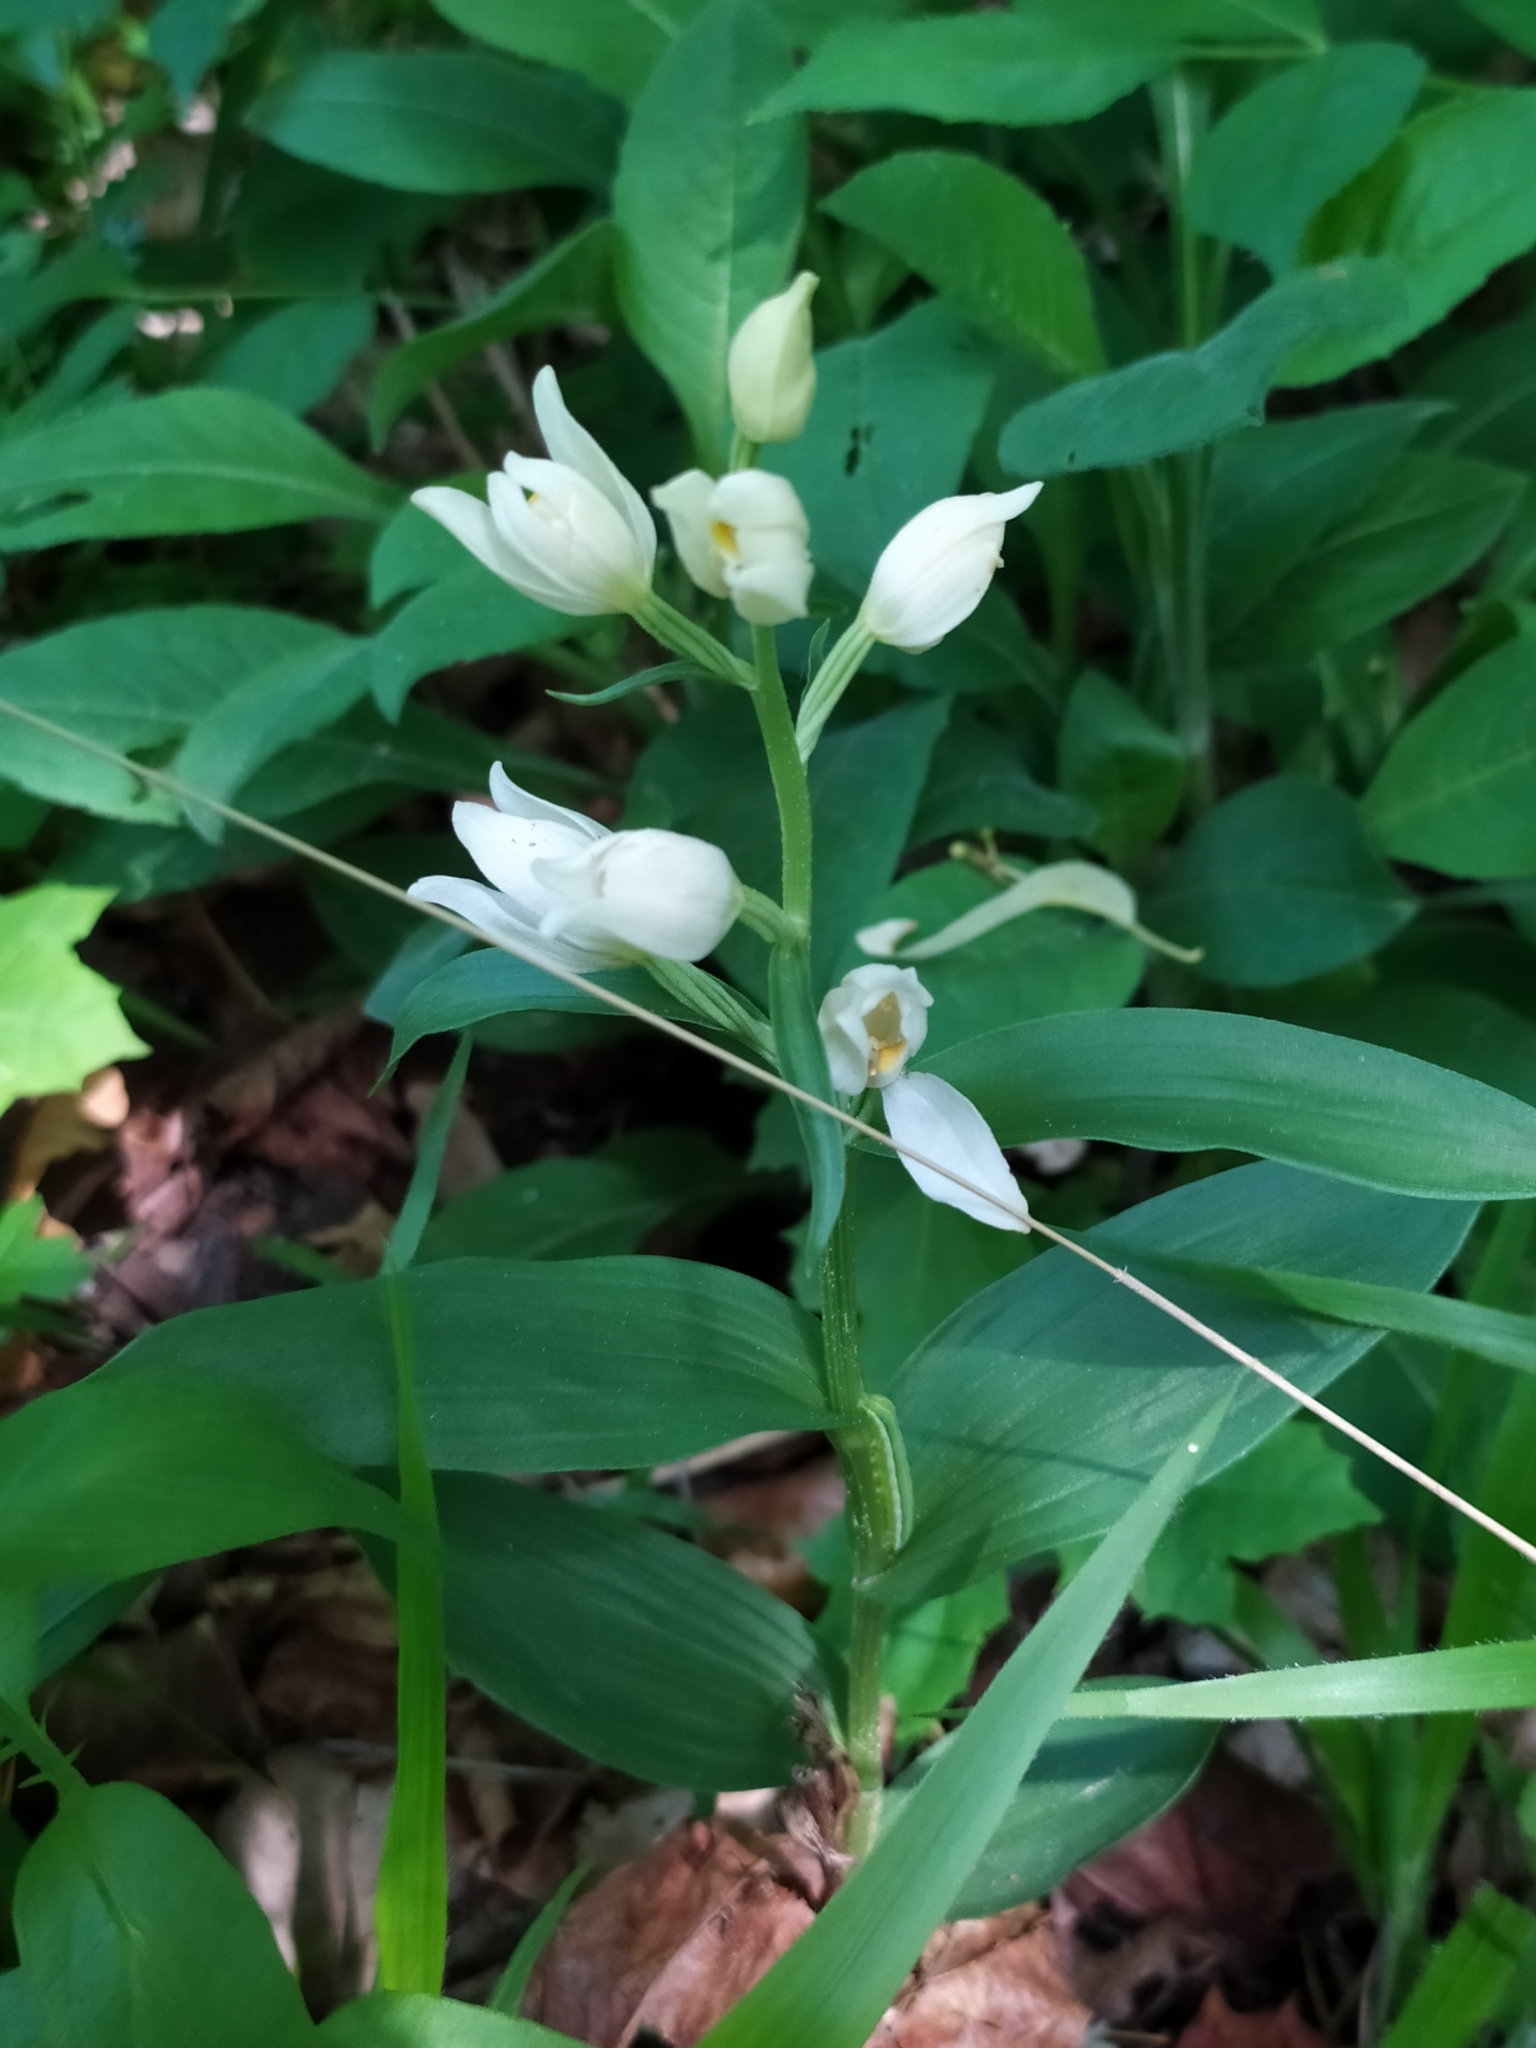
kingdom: Plantae
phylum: Tracheophyta
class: Liliopsida
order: Asparagales
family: Orchidaceae
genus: Cephalanthera
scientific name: Cephalanthera damasonium
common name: White helleborine
